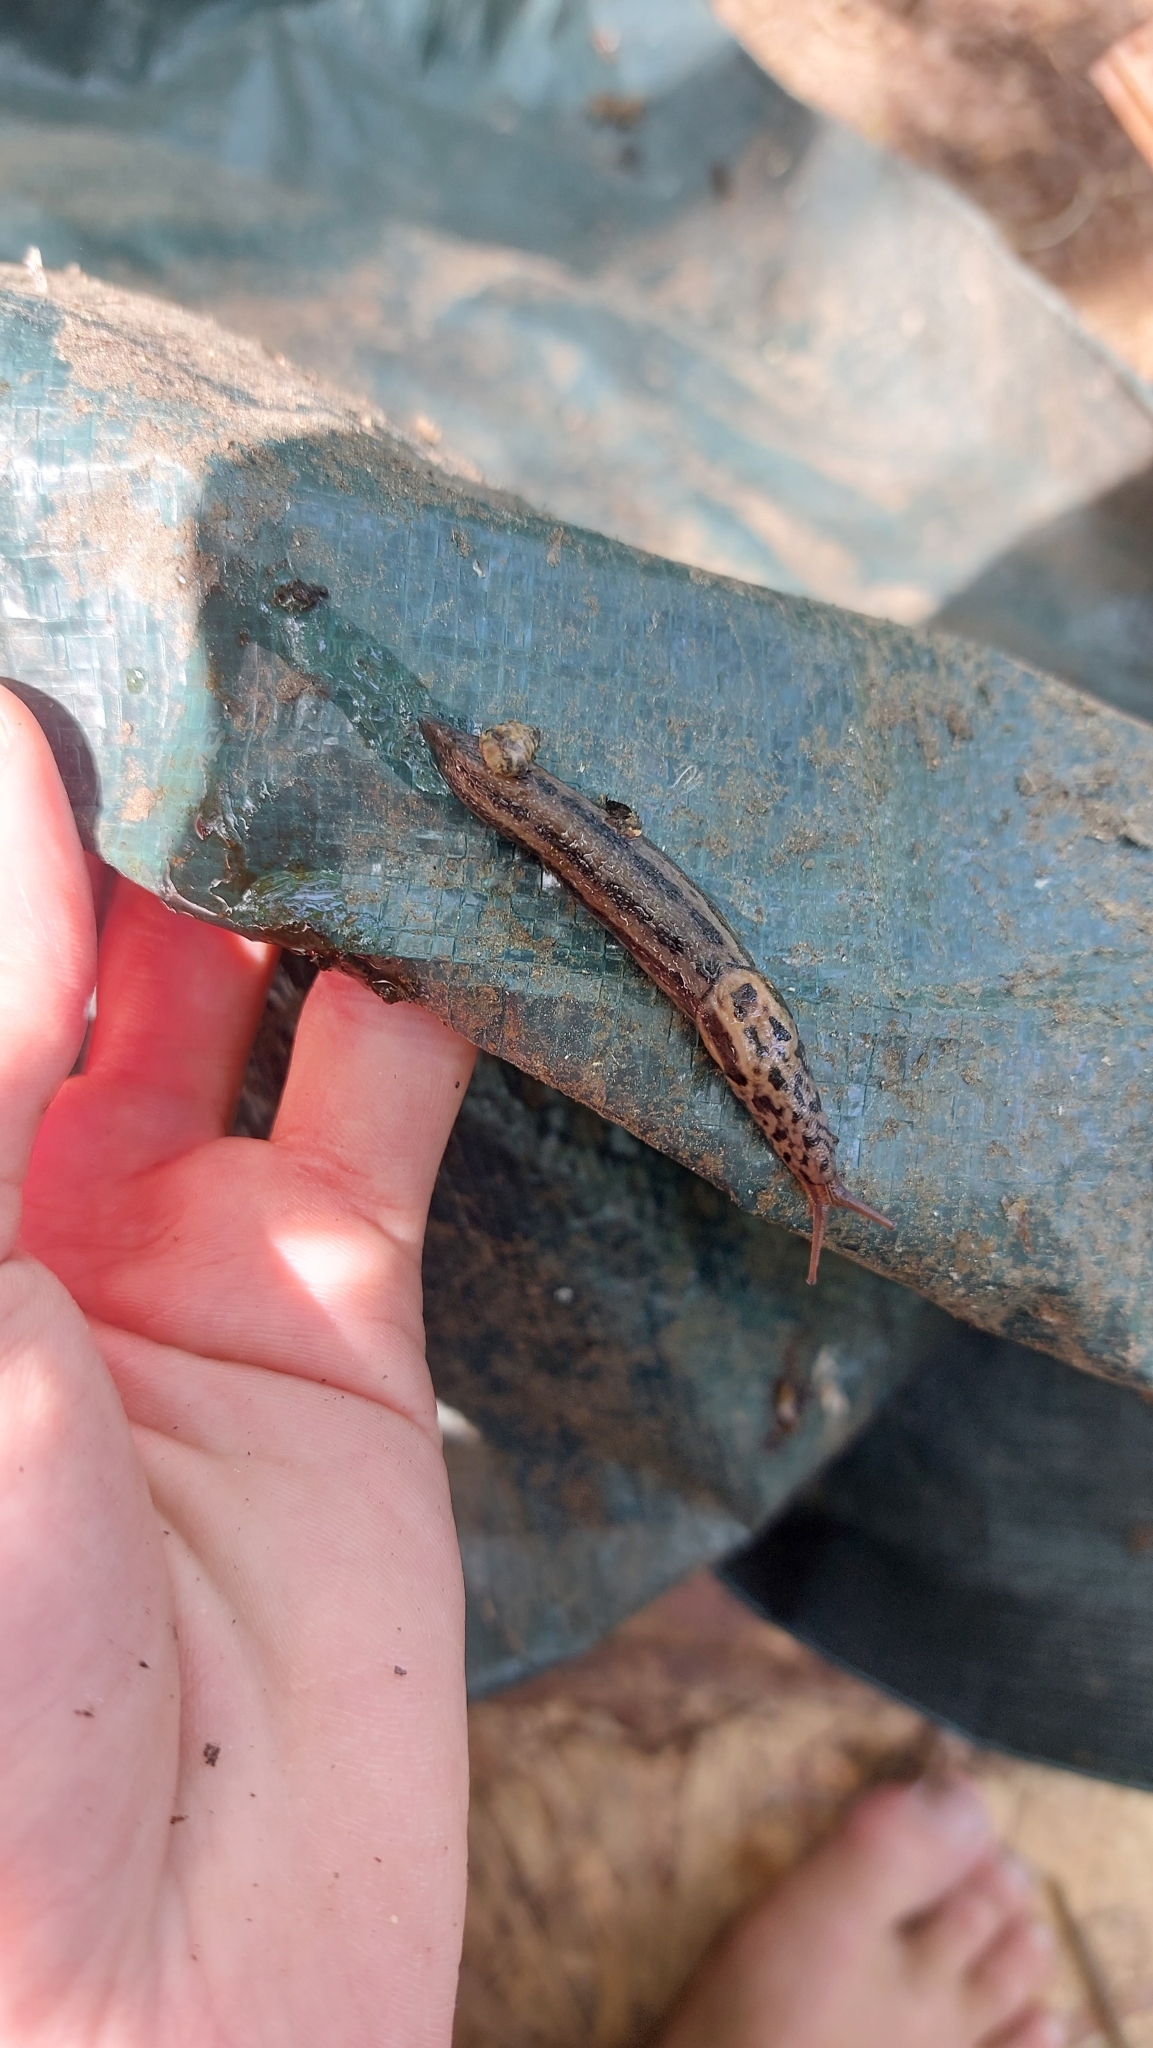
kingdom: Animalia
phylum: Mollusca
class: Gastropoda
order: Stylommatophora
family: Limacidae
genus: Limax
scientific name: Limax maximus
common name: Great grey slug
